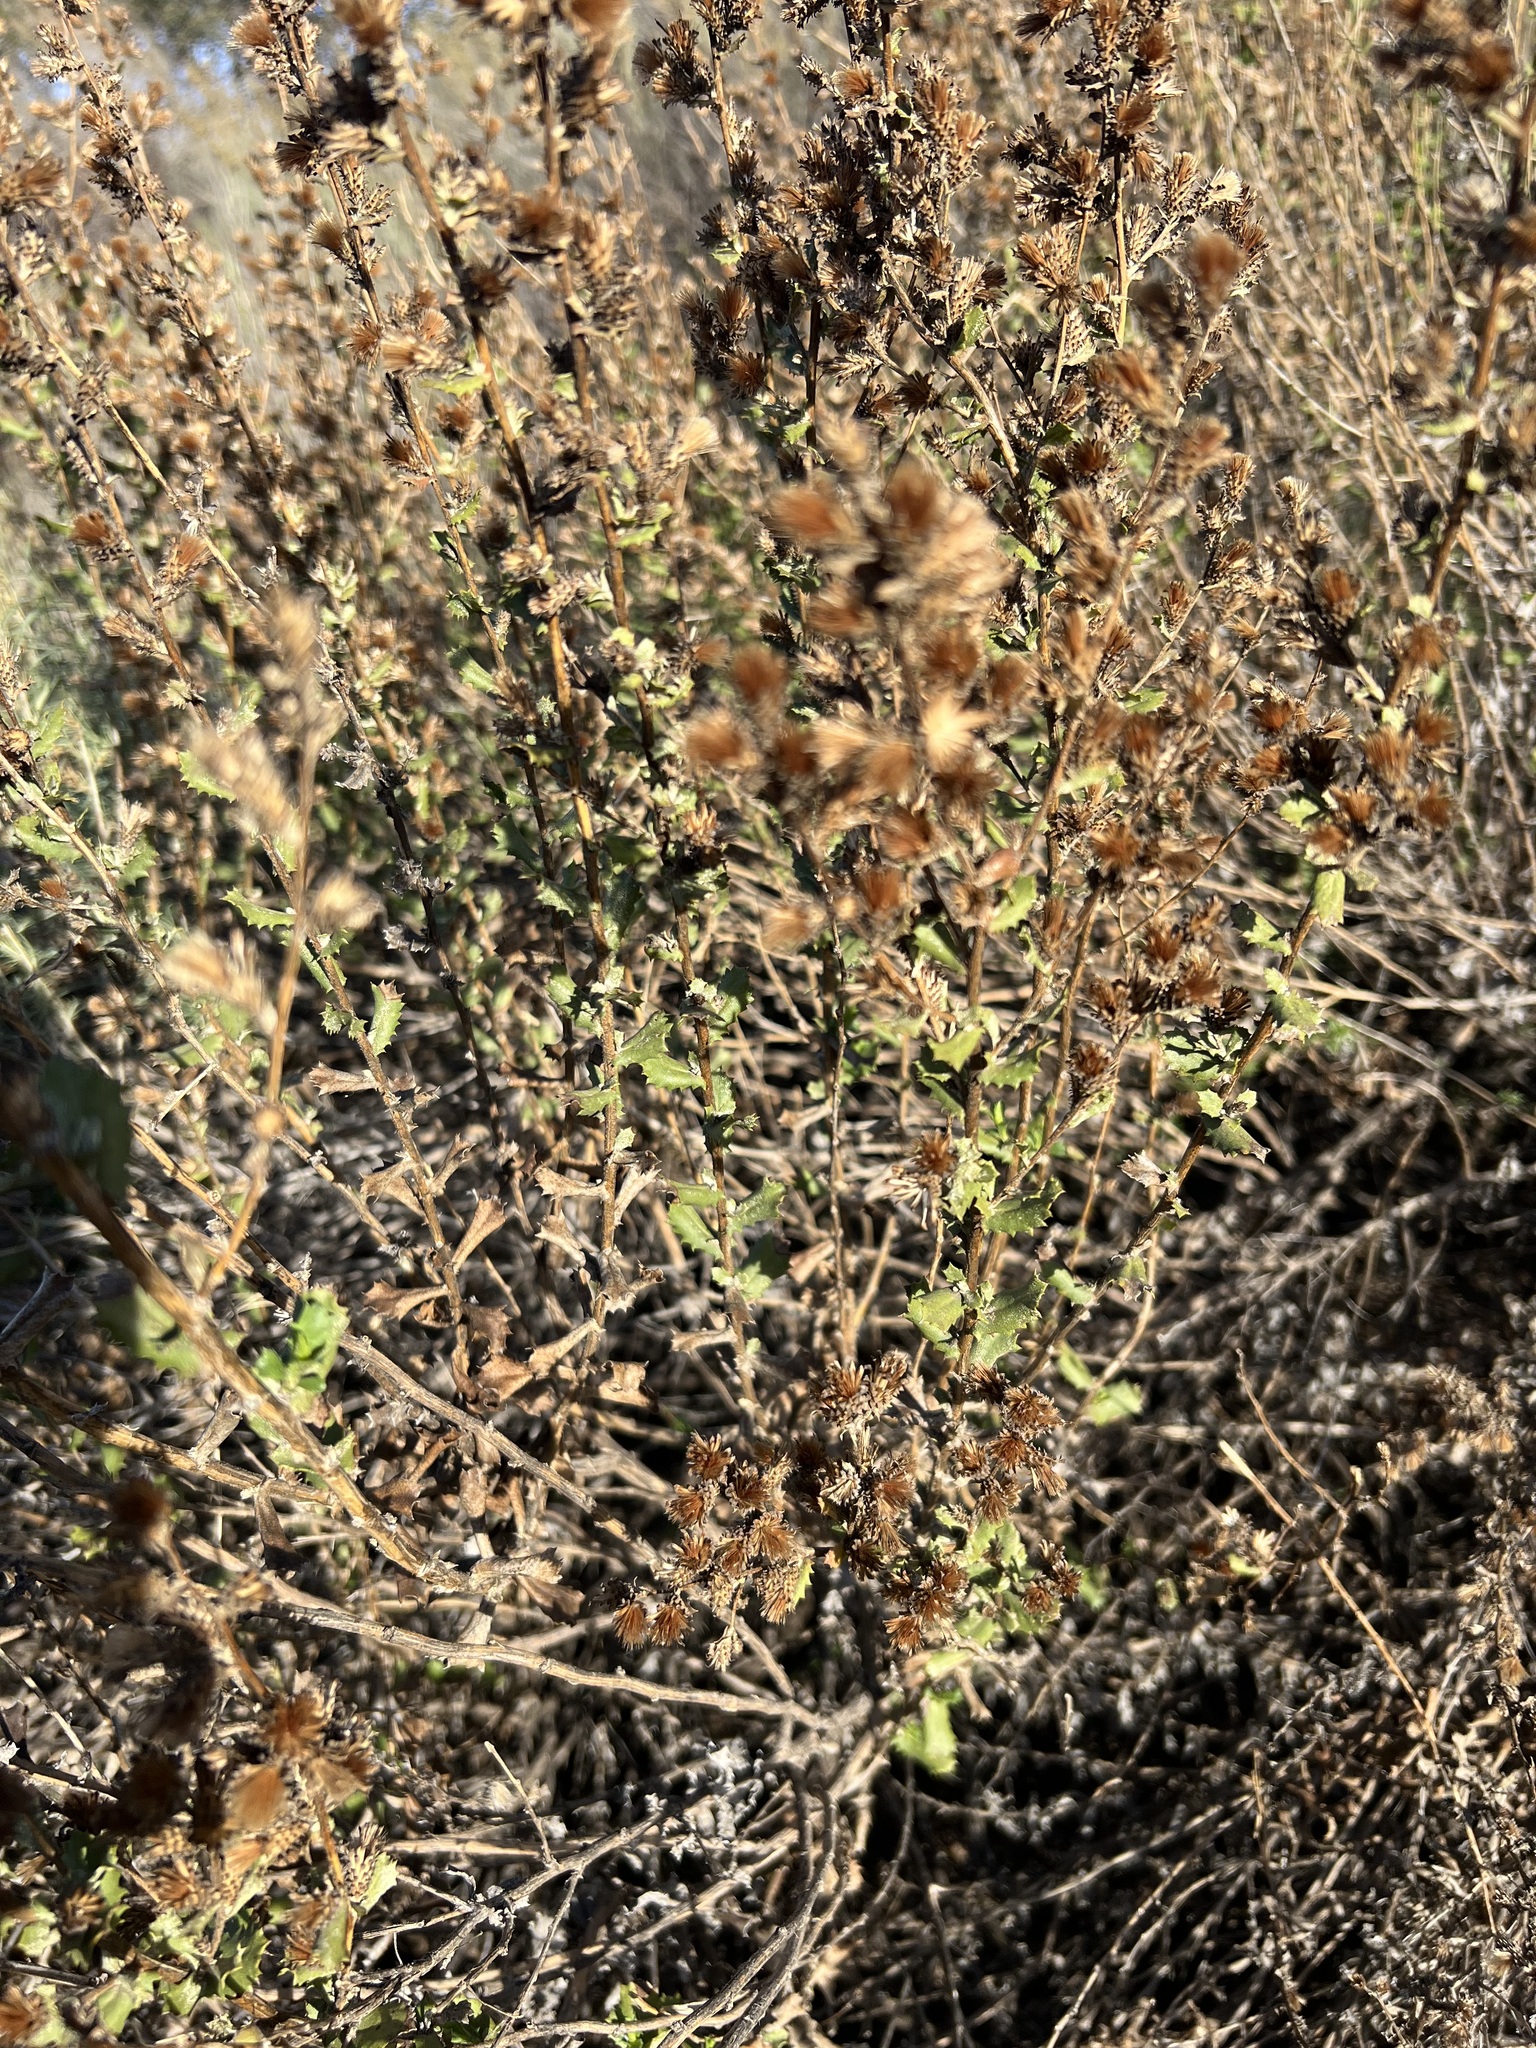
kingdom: Plantae
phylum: Tracheophyta
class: Magnoliopsida
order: Asterales
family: Asteraceae
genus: Hazardia
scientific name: Hazardia squarrosa
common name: Saw-tooth goldenbush
